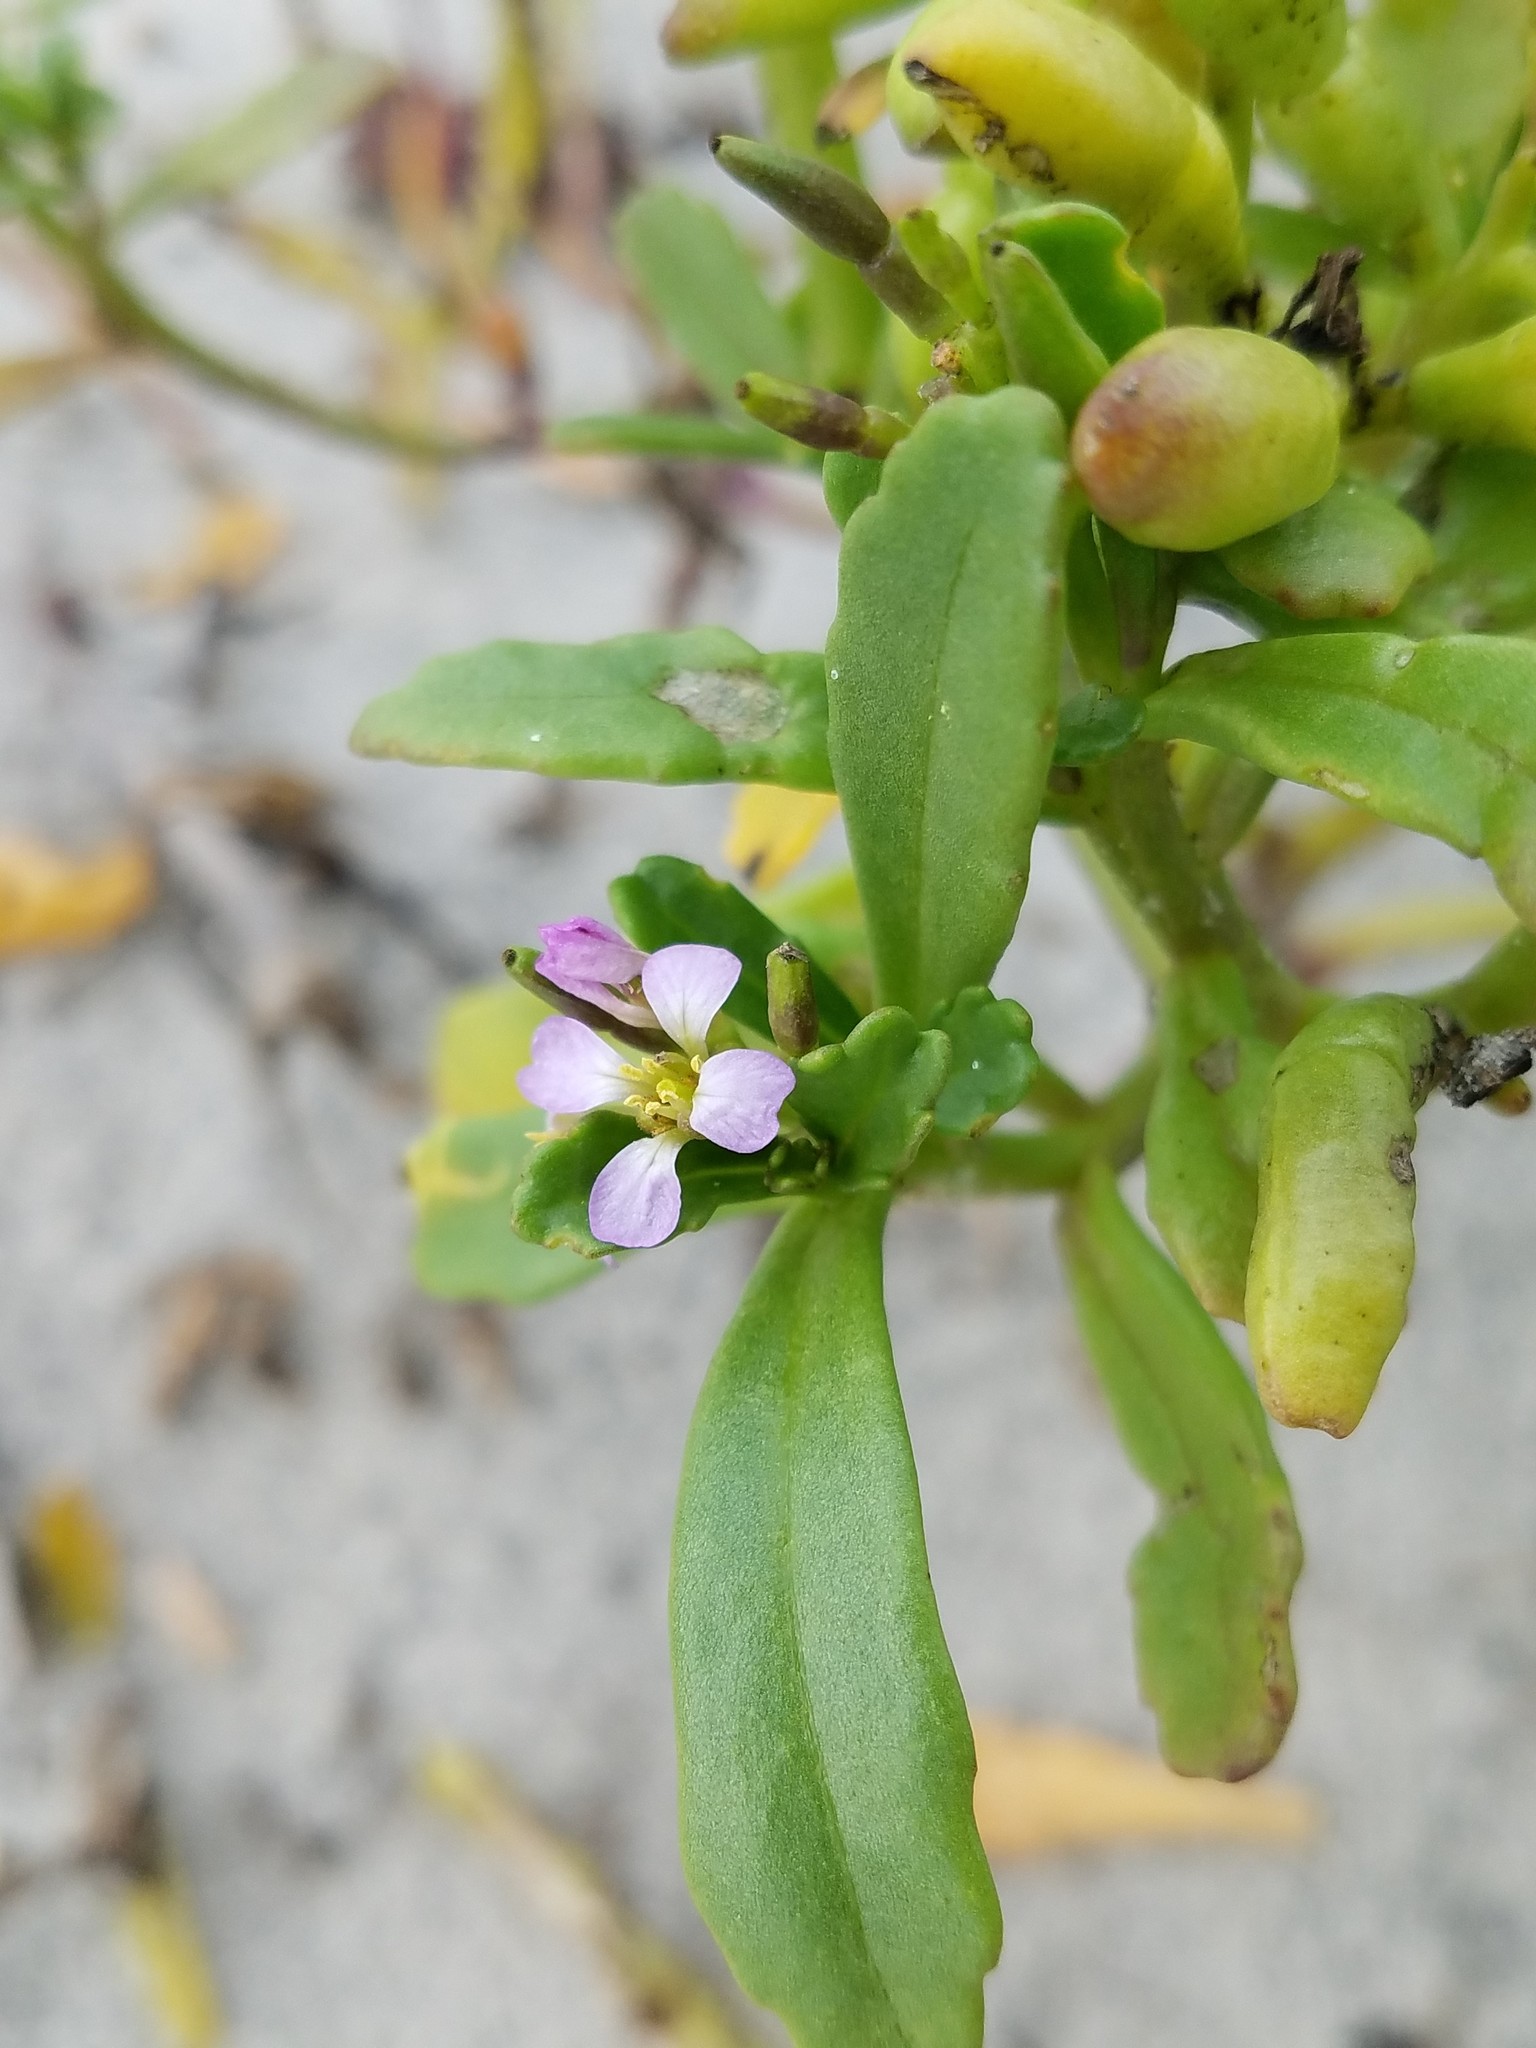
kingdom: Plantae
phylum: Tracheophyta
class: Magnoliopsida
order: Brassicales
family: Brassicaceae
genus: Cakile
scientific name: Cakile edentula
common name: American sea rocket
